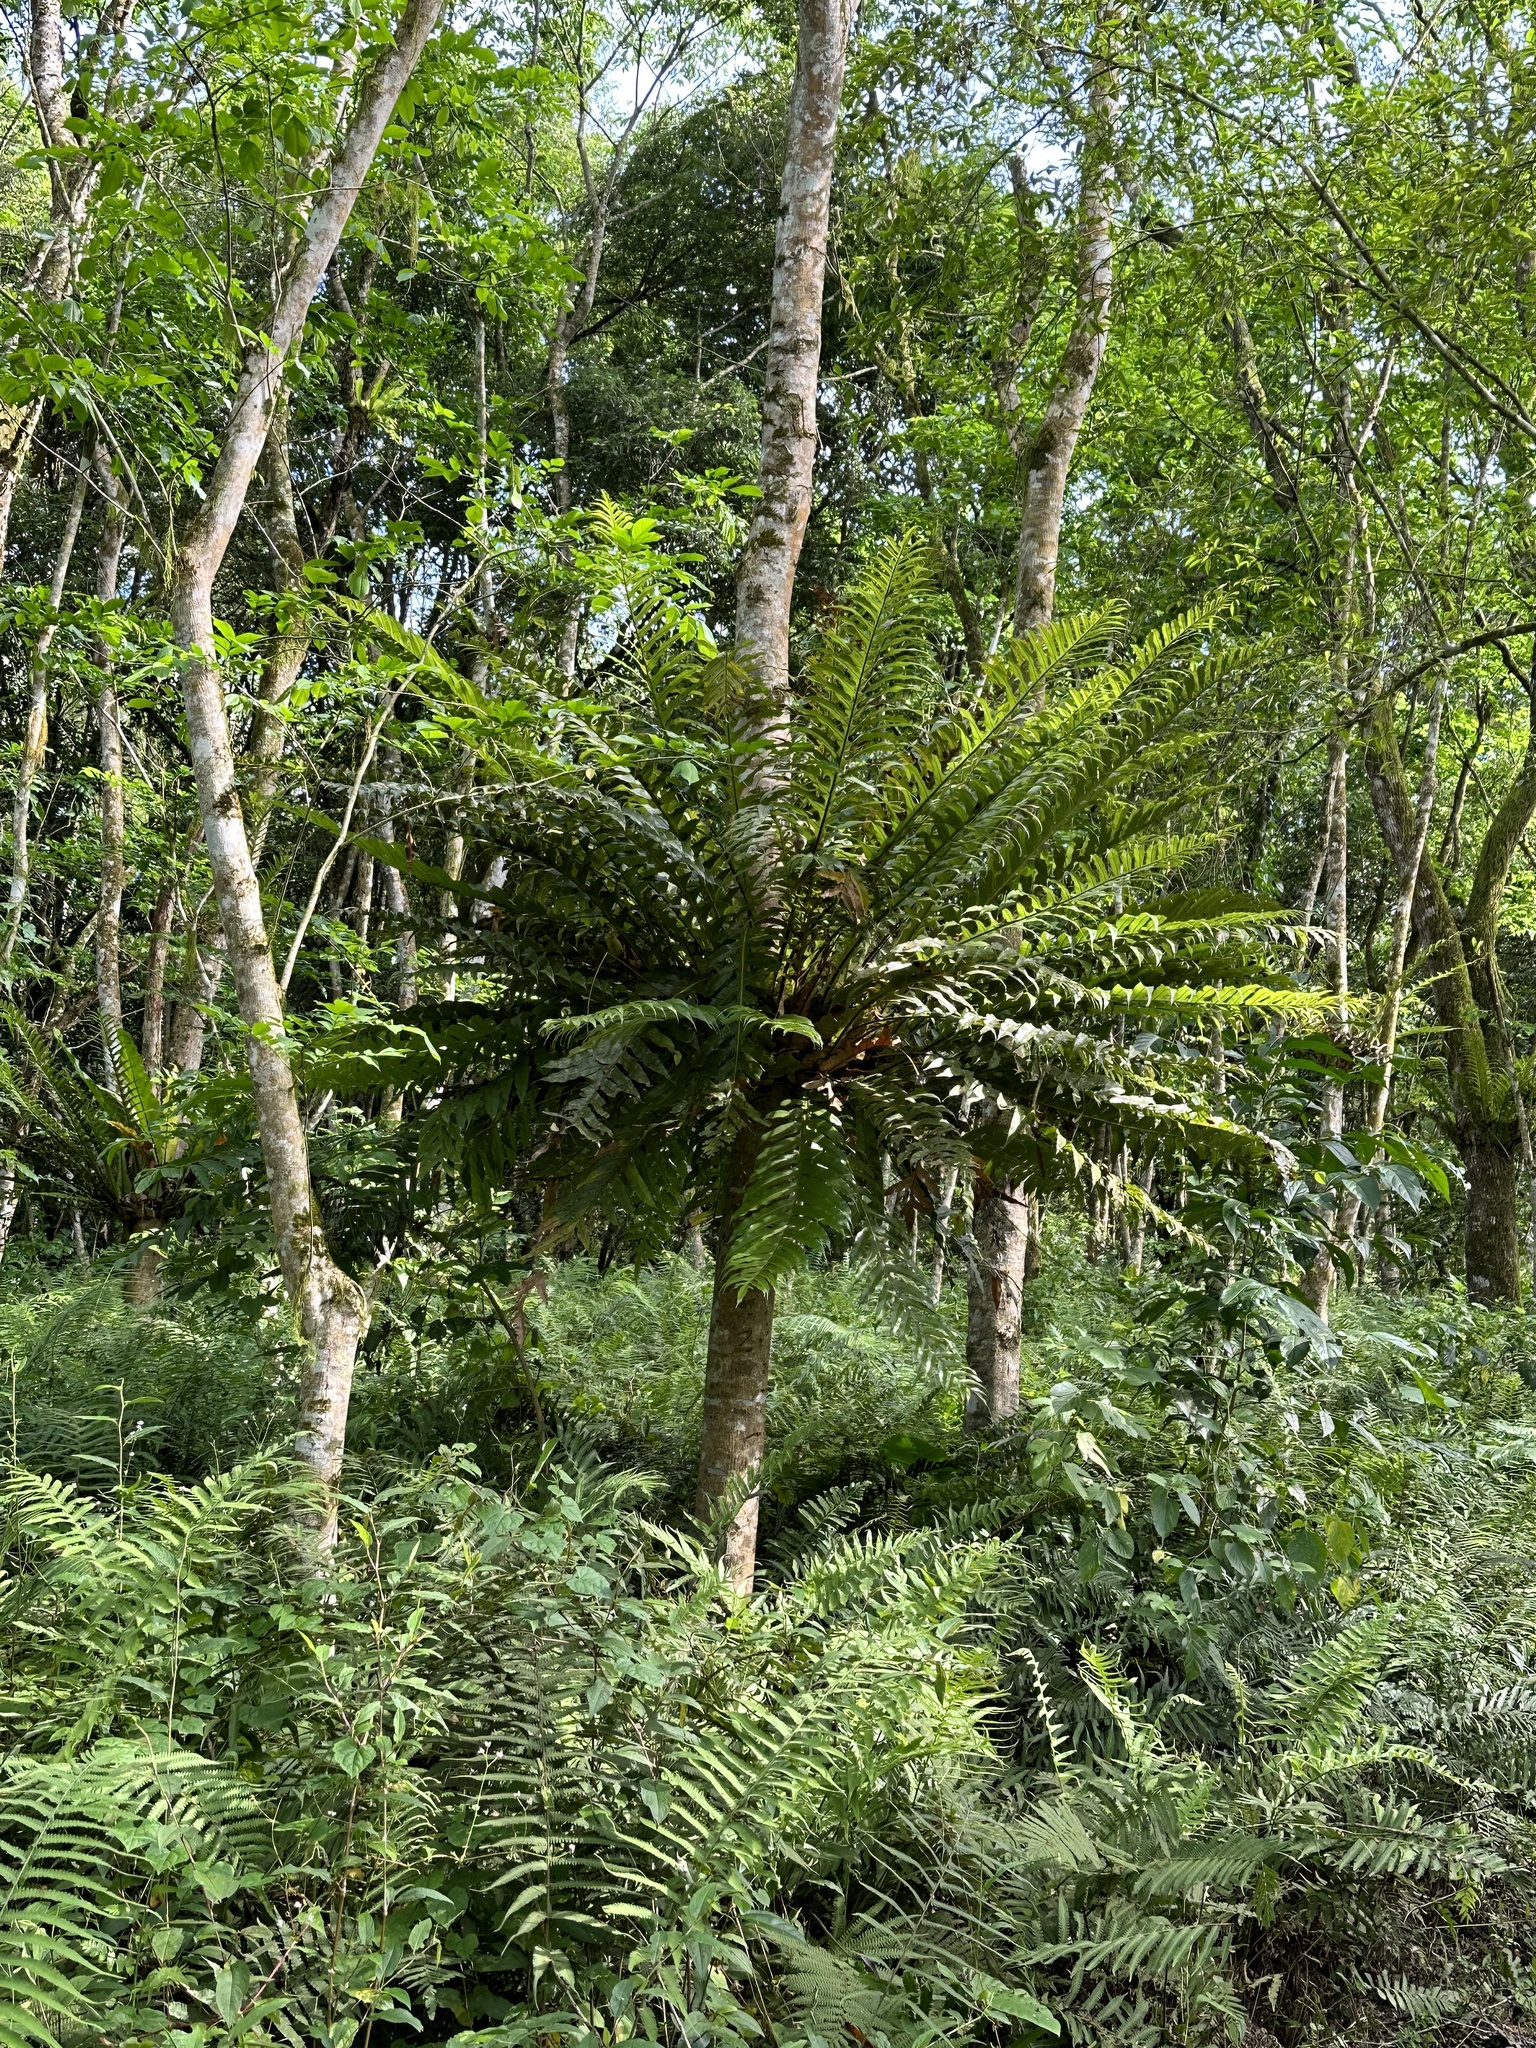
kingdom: Plantae
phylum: Tracheophyta
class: Polypodiopsida
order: Polypodiales
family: Polypodiaceae
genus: Drynaria
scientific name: Drynaria coronans
